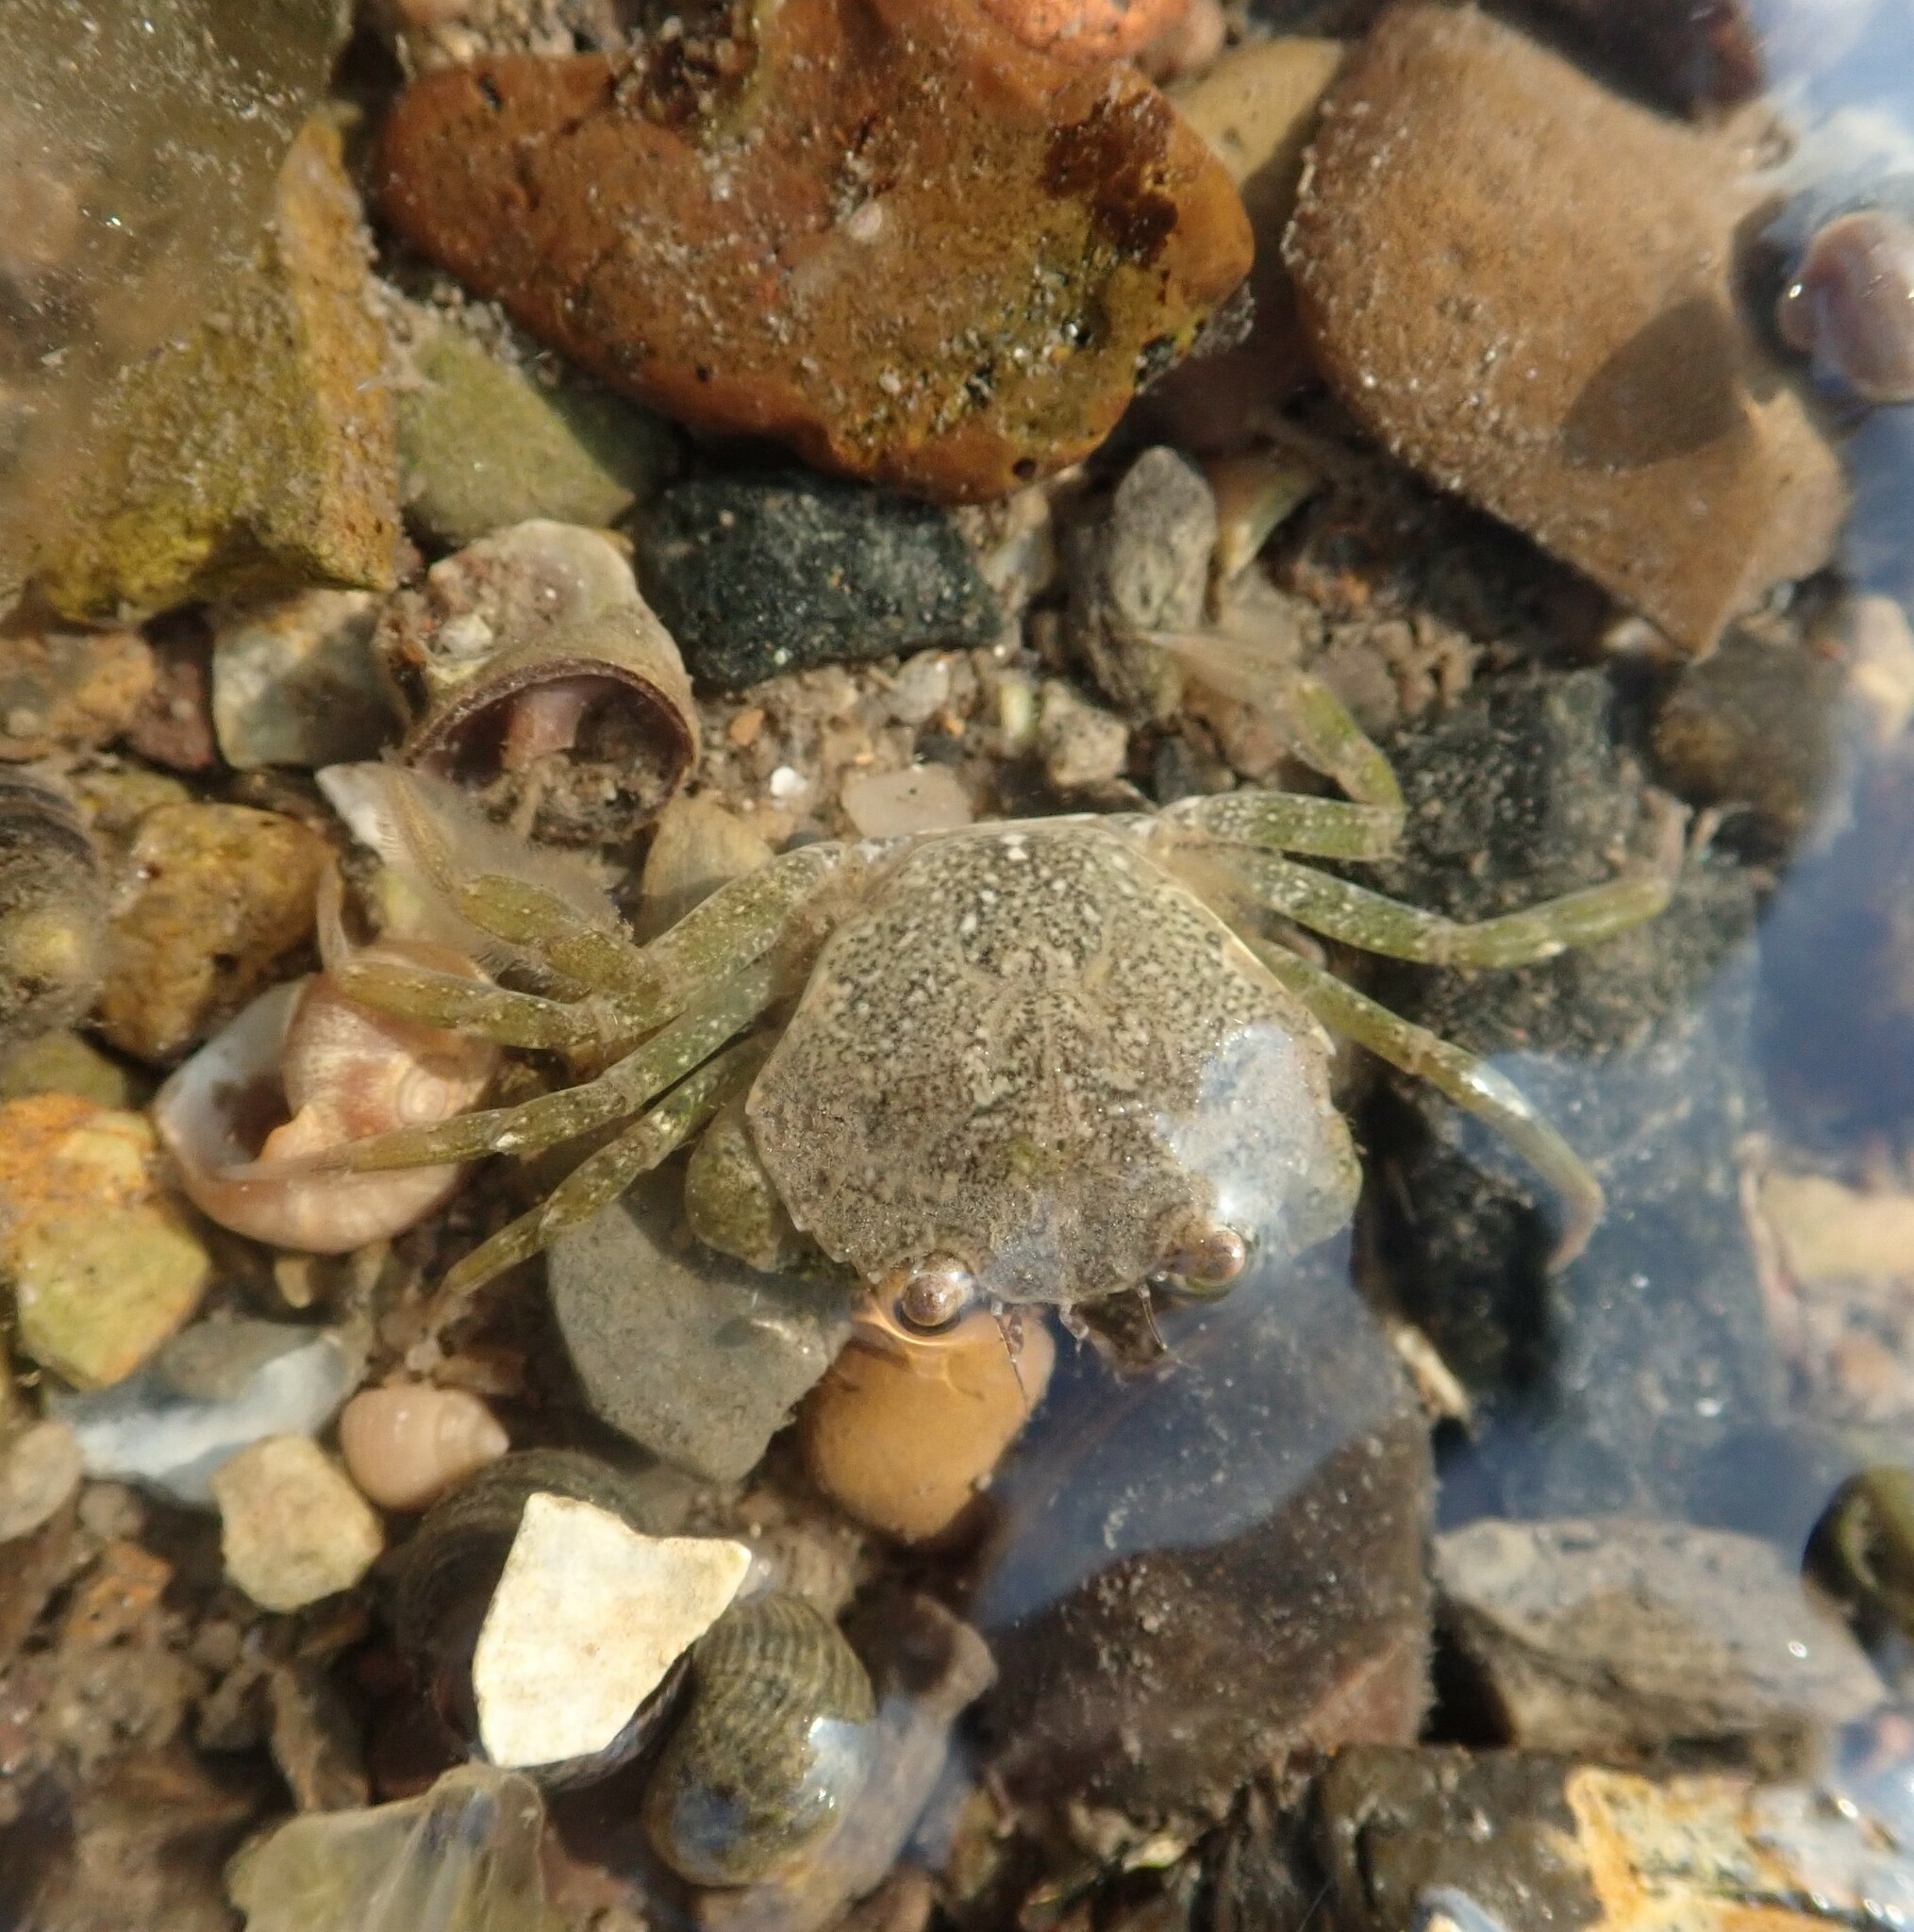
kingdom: Animalia
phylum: Arthropoda
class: Malacostraca
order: Decapoda
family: Carcinidae
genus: Carcinus
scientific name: Carcinus maenas
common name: European green crab
